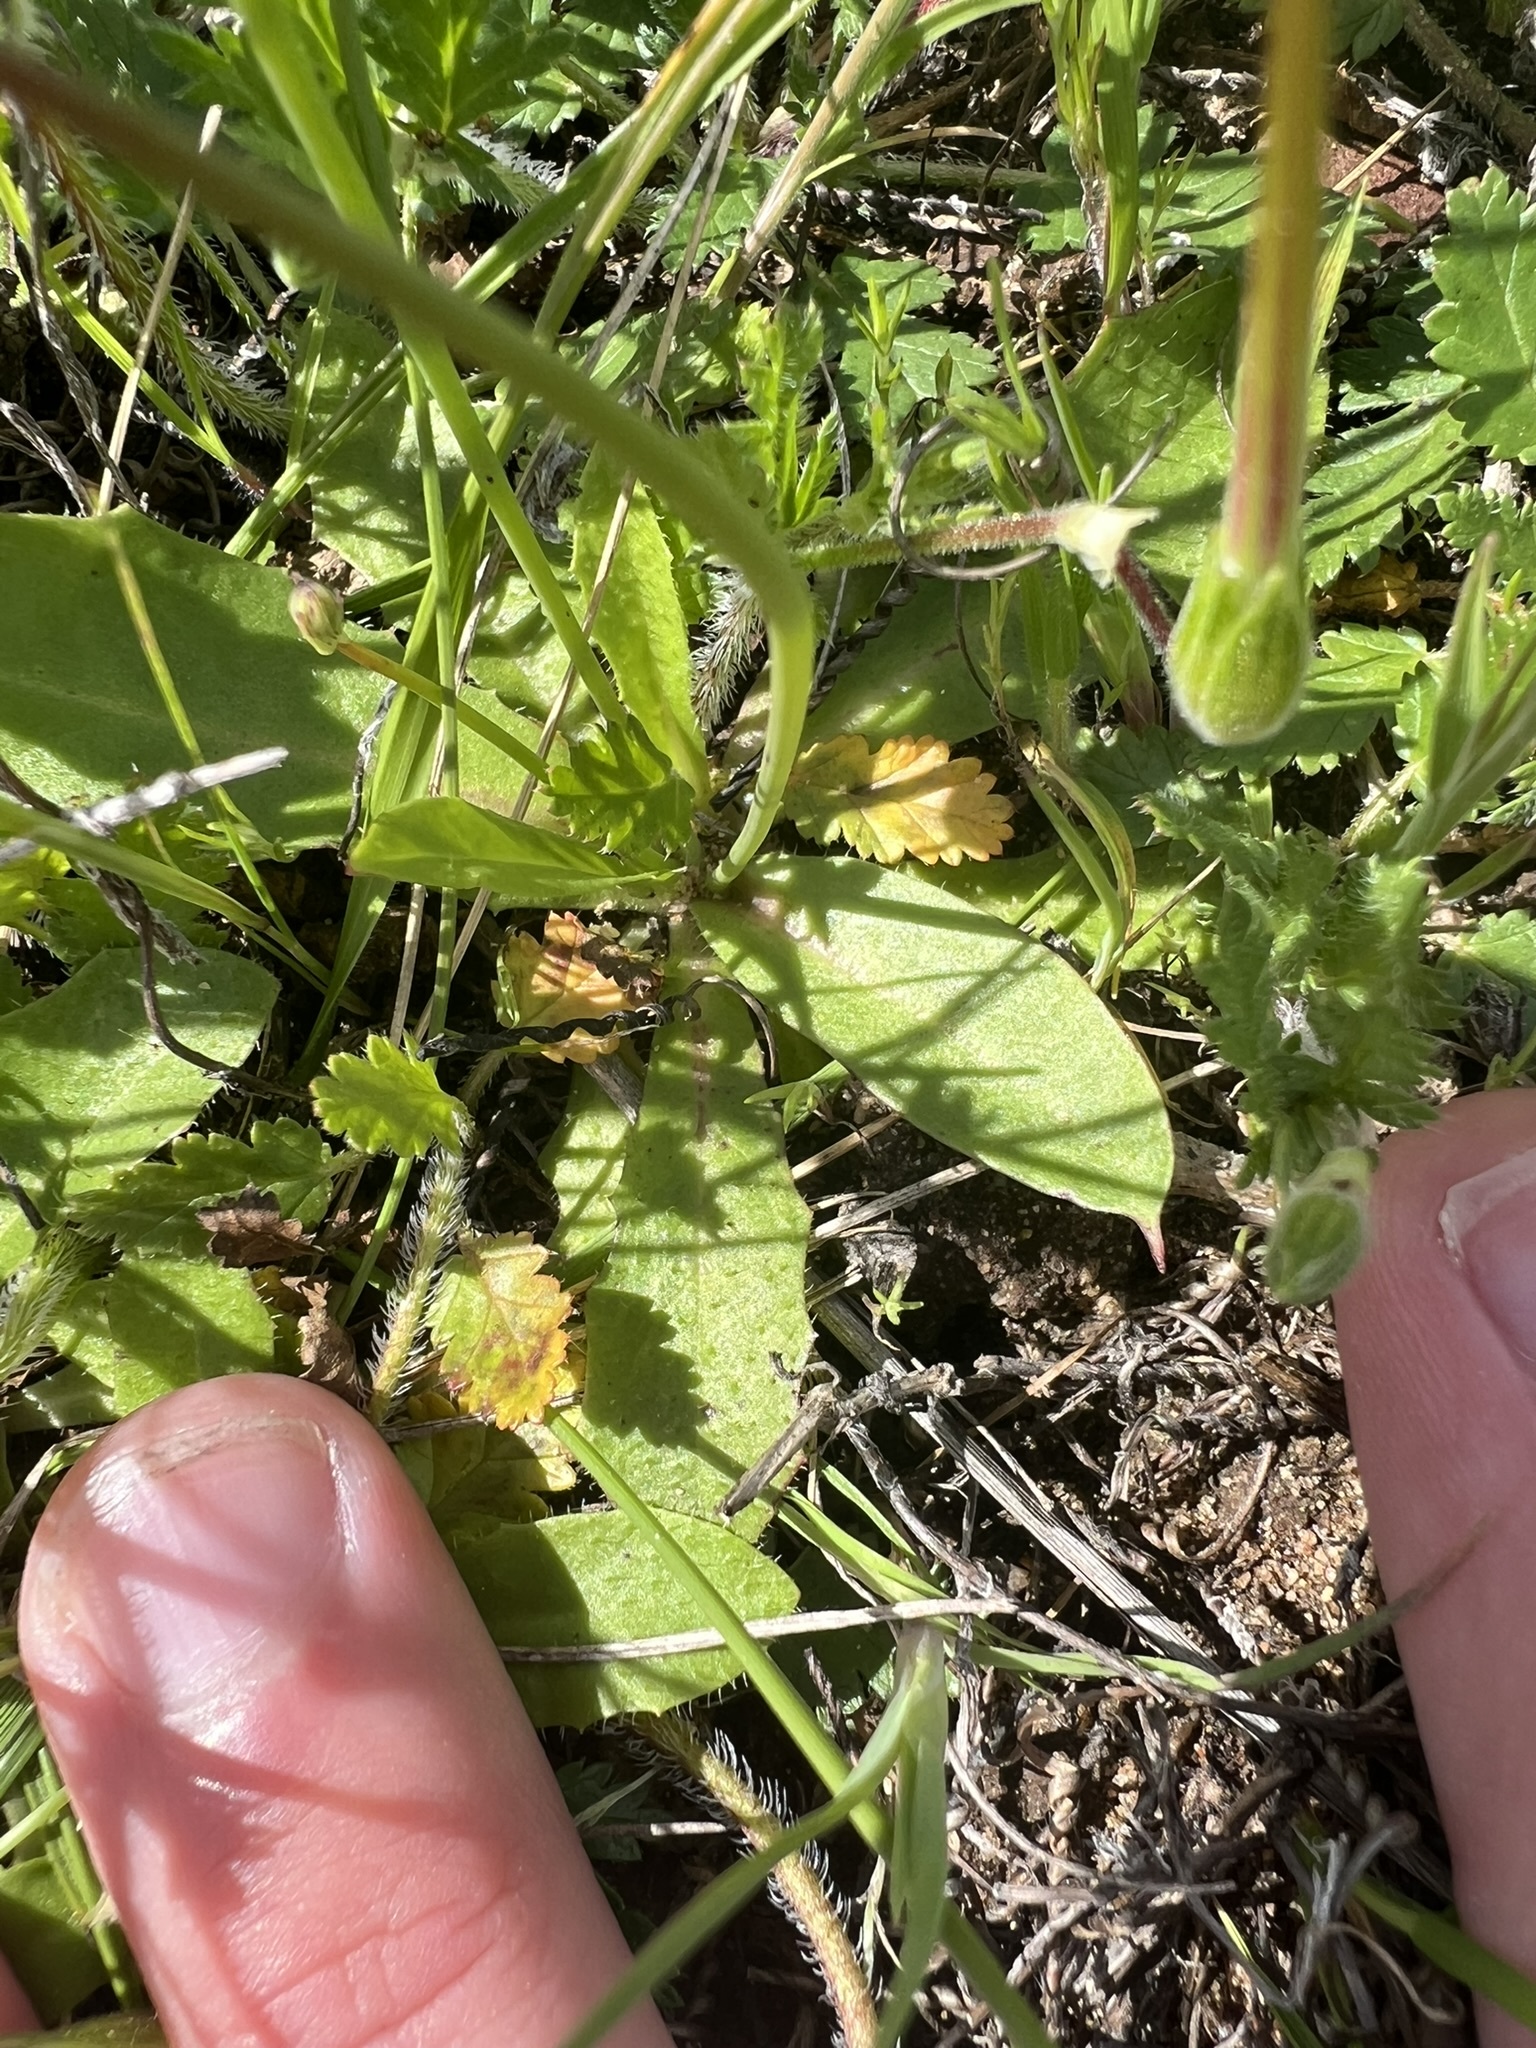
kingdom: Plantae
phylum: Tracheophyta
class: Magnoliopsida
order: Asterales
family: Asteraceae
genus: Hypochaeris
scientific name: Hypochaeris glabra
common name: Smooth catsear
